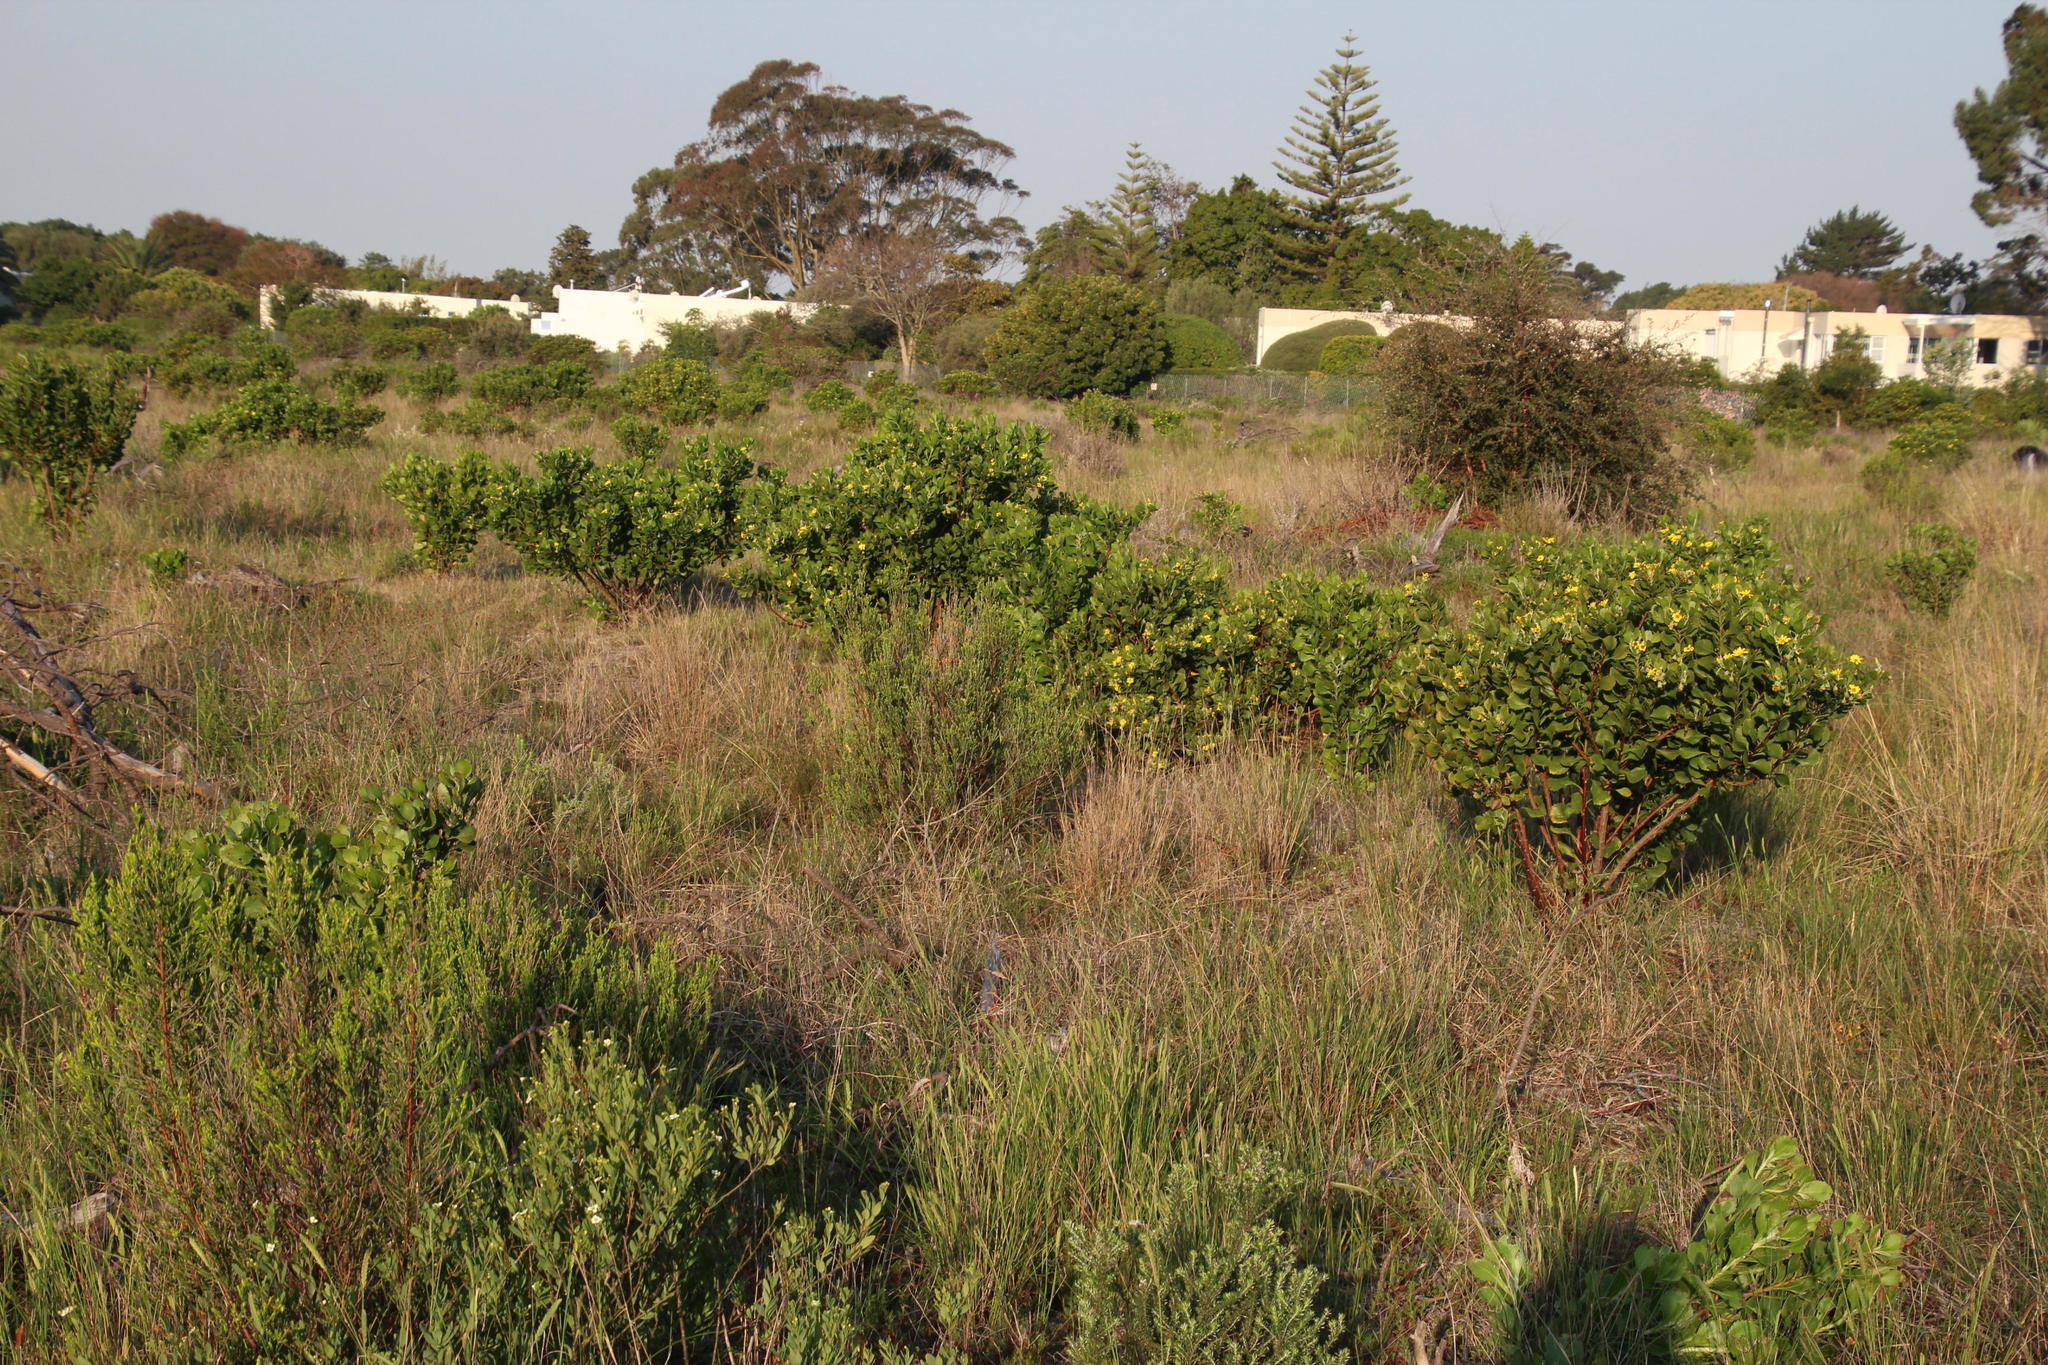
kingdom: Plantae
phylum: Tracheophyta
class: Magnoliopsida
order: Asterales
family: Asteraceae
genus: Osteospermum
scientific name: Osteospermum moniliferum
